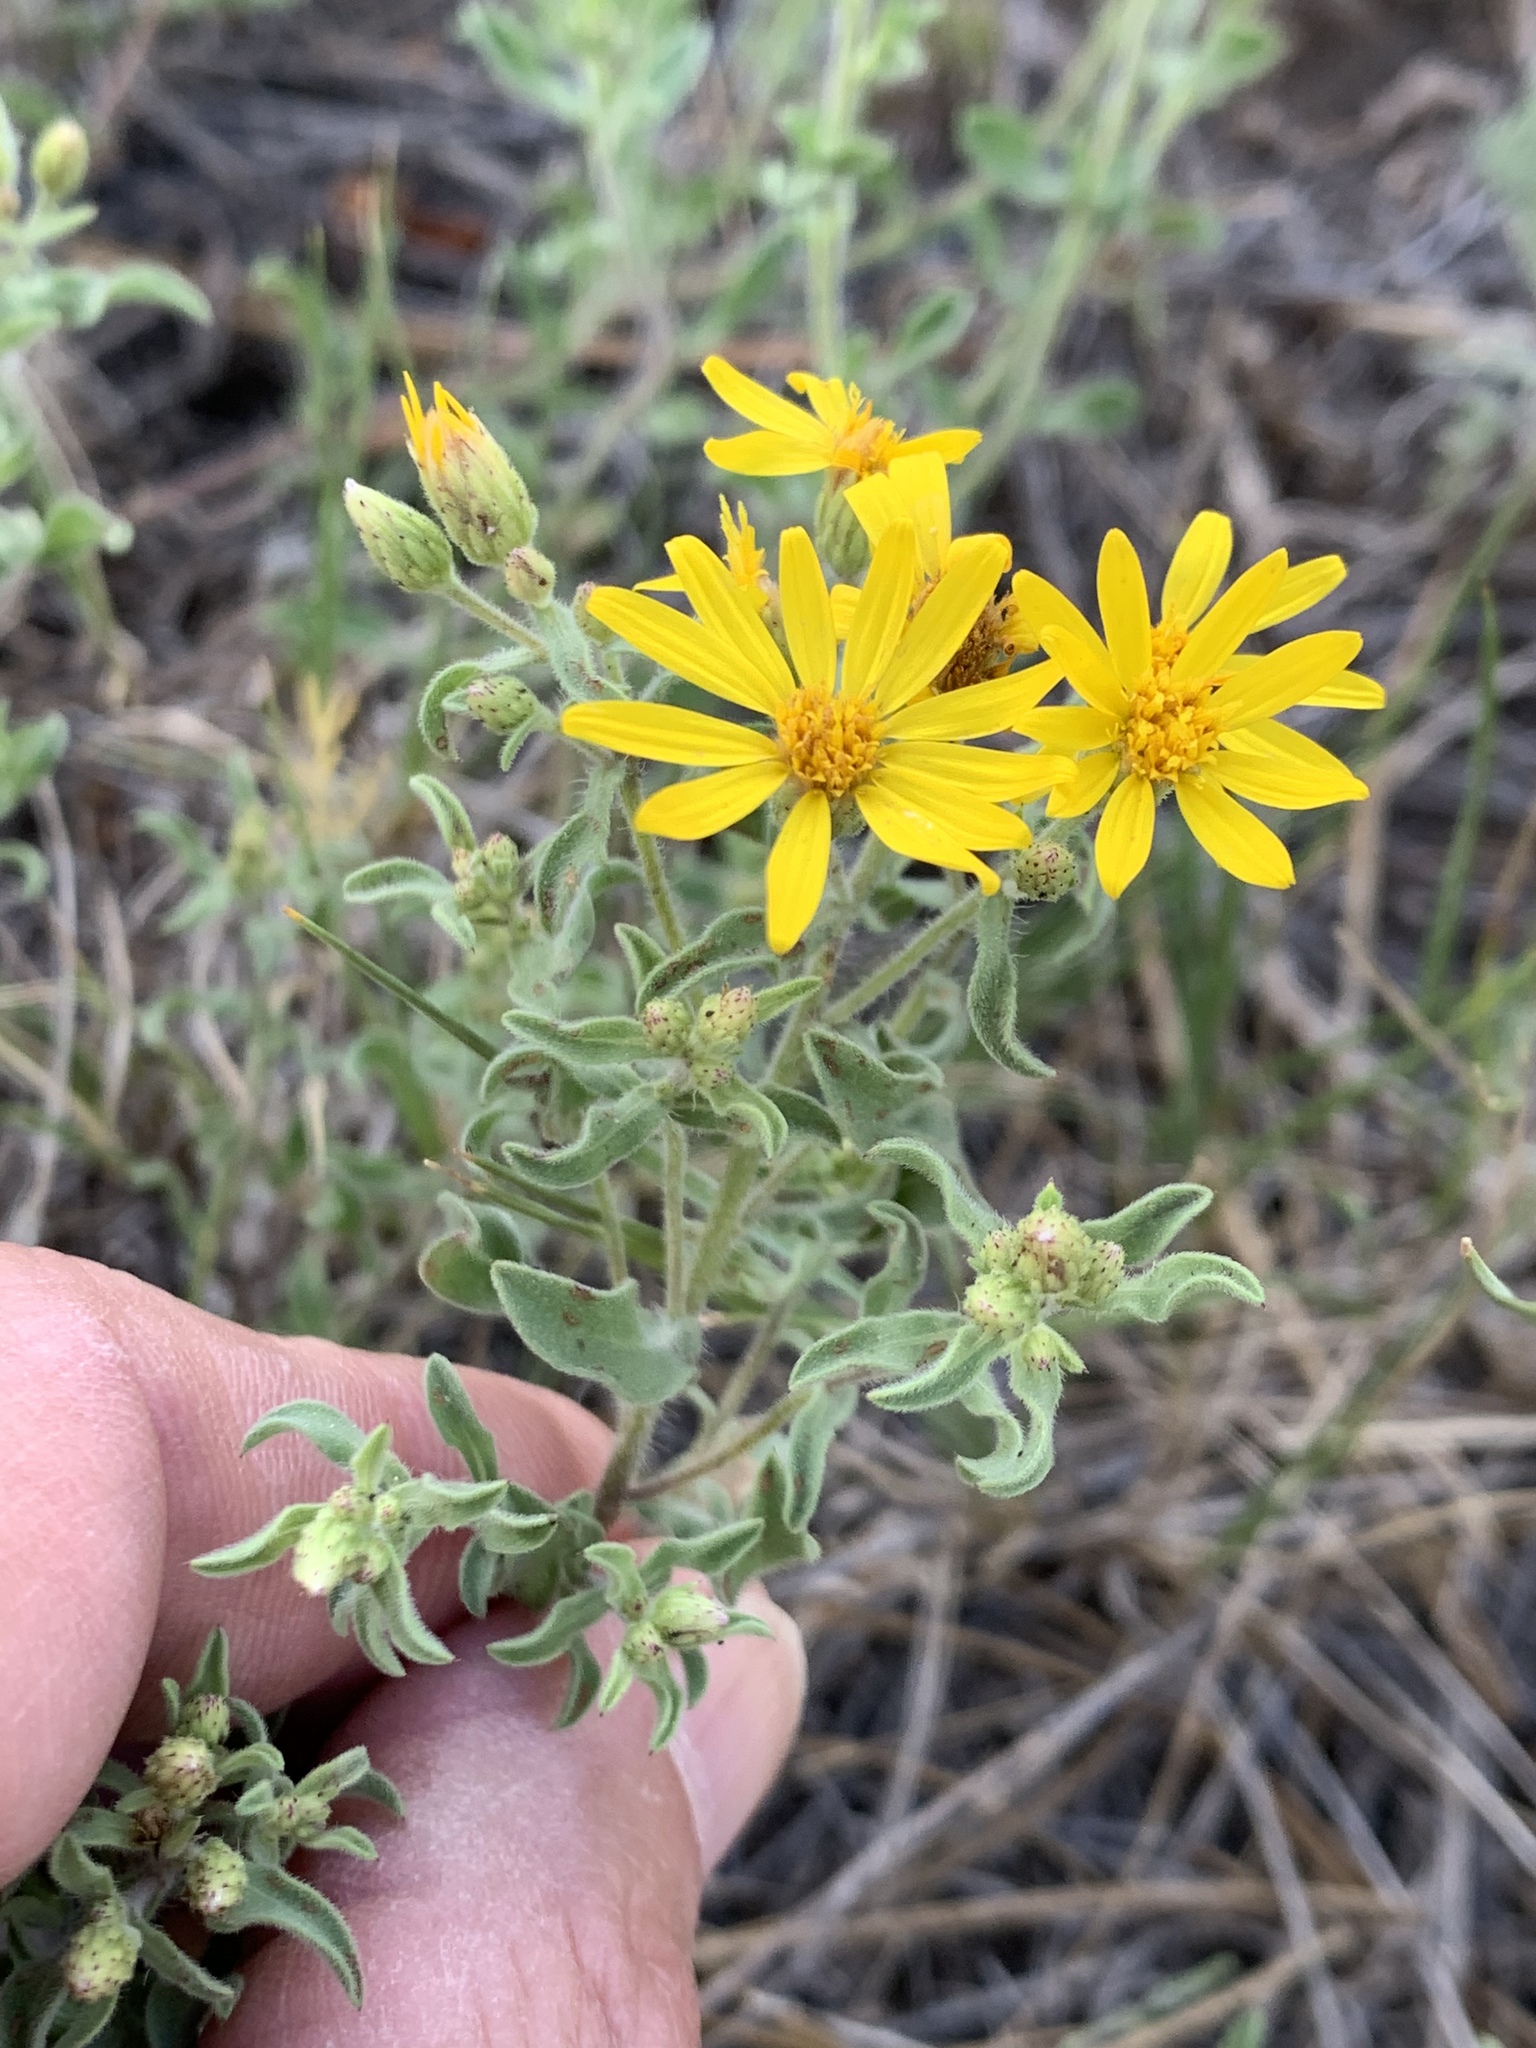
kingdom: Plantae
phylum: Tracheophyta
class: Magnoliopsida
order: Asterales
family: Asteraceae
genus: Heterotheca
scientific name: Heterotheca hirsutissima
